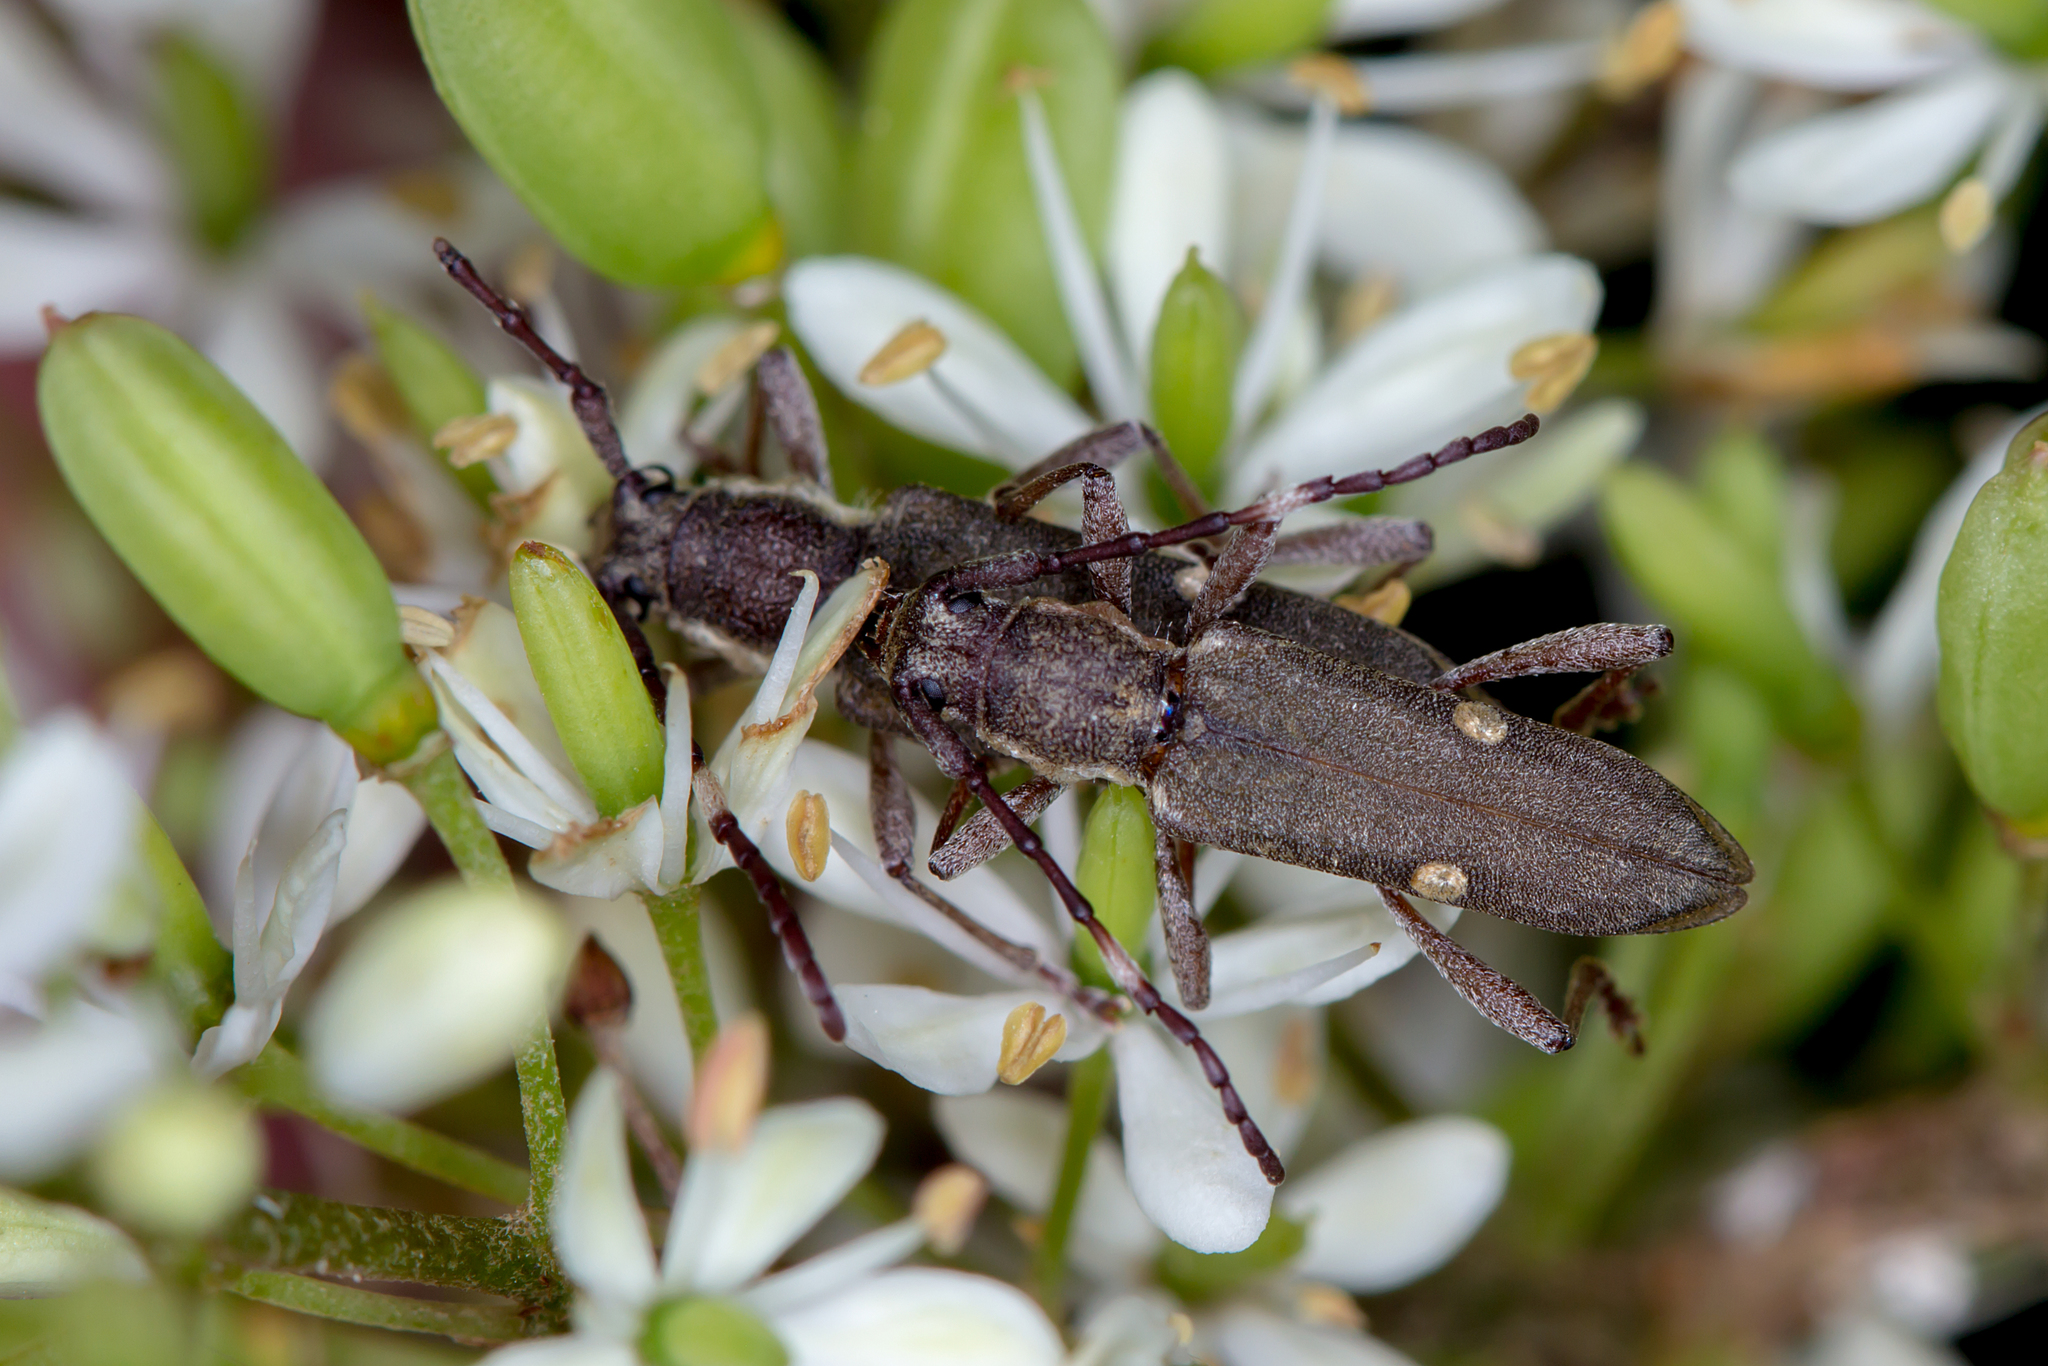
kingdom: Animalia
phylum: Arthropoda
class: Insecta
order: Coleoptera
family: Cerambycidae
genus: Pempsamacra
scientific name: Pempsamacra pygmaea
